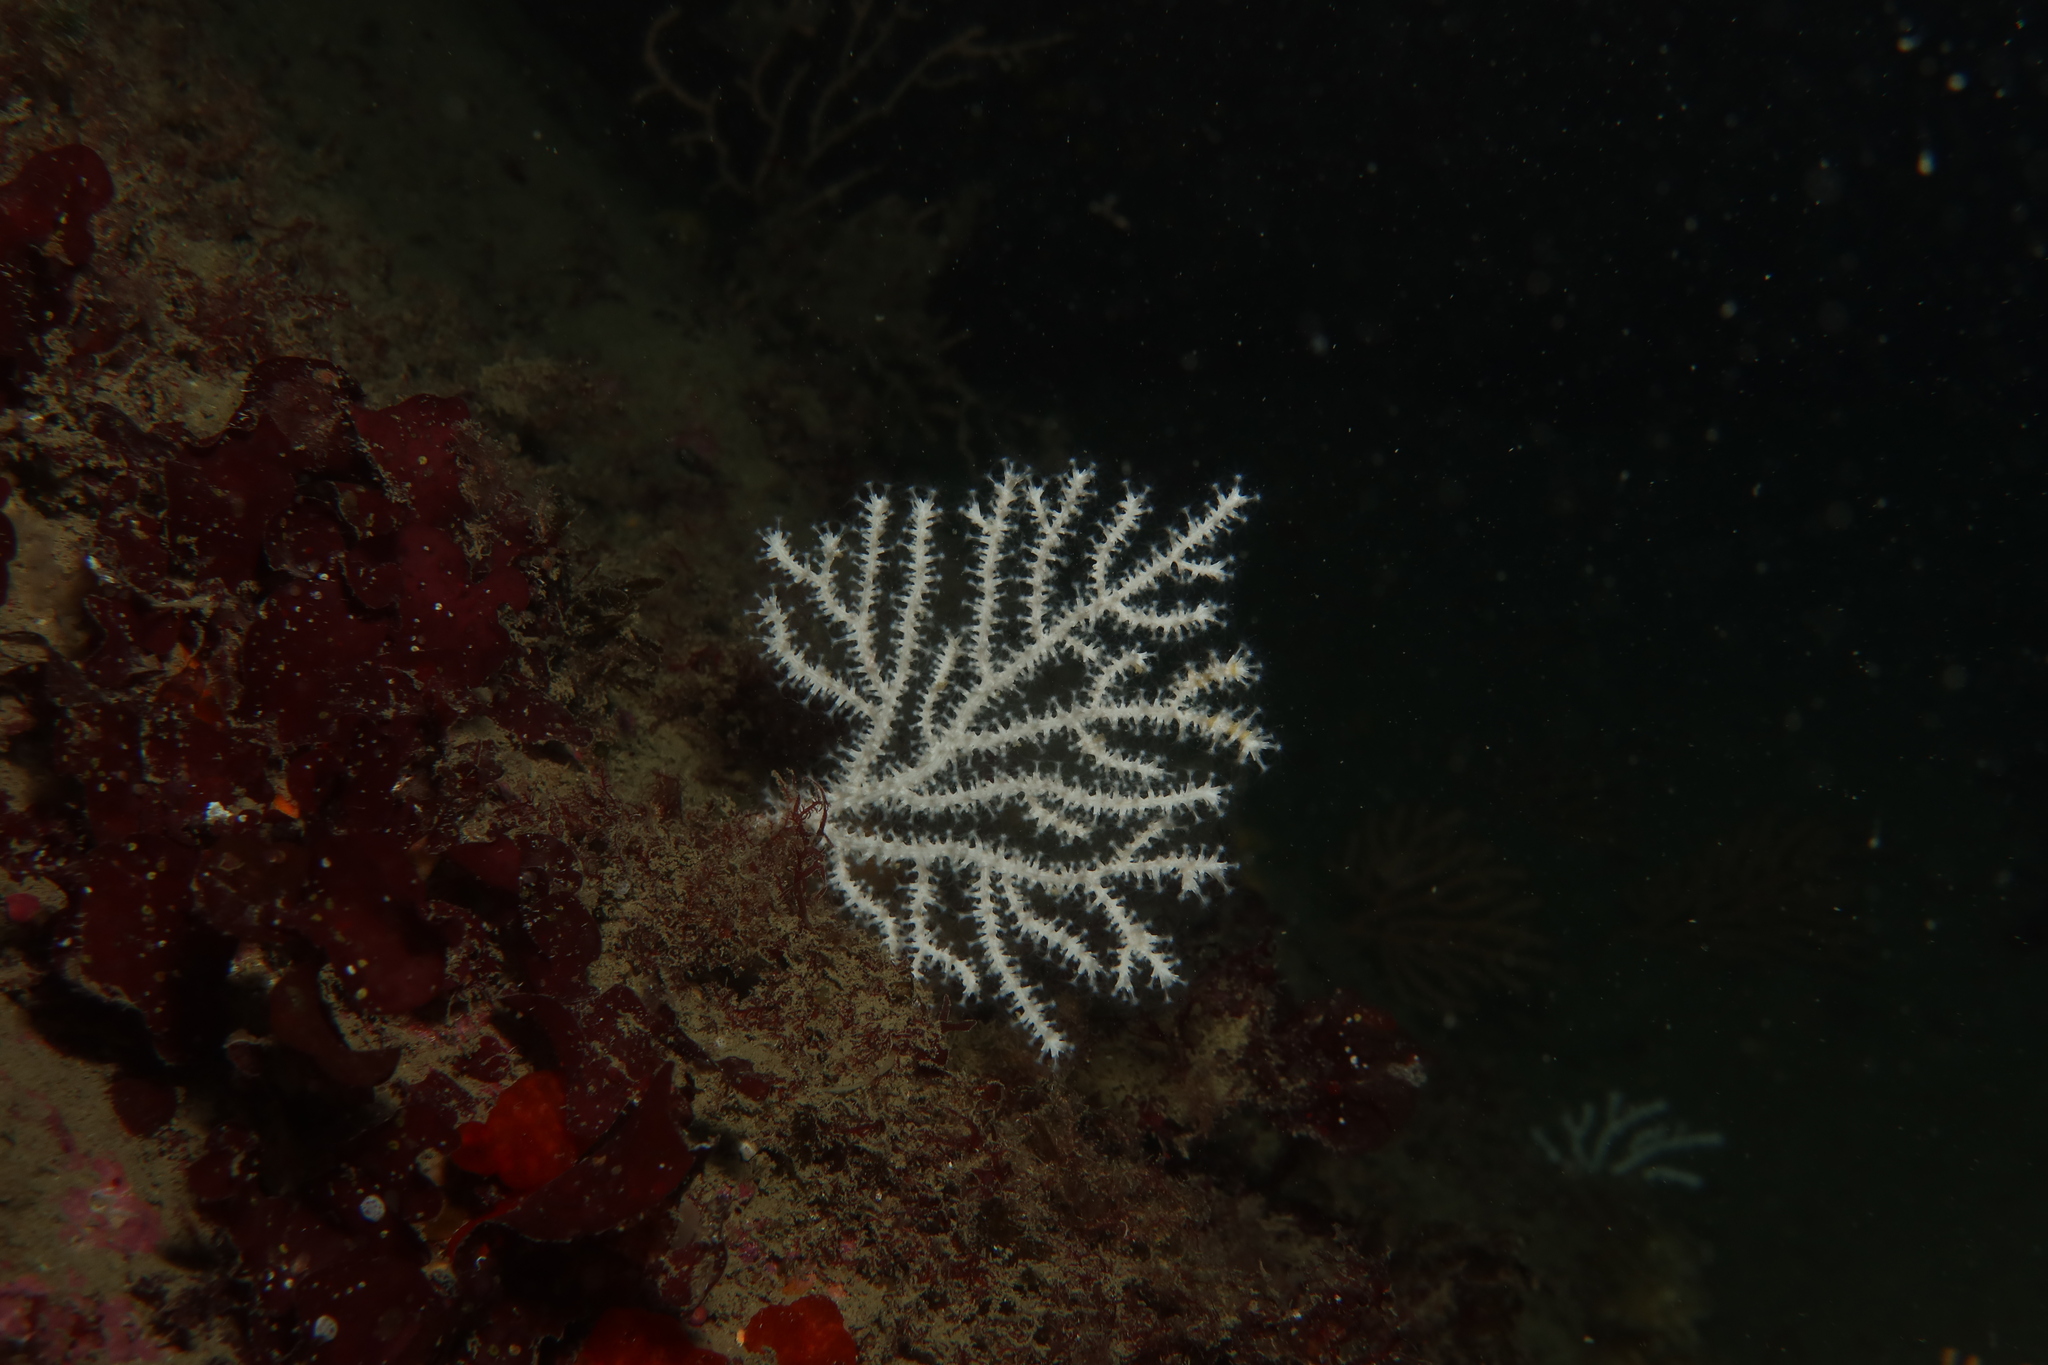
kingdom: Animalia
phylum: Cnidaria
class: Anthozoa
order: Malacalcyonacea
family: Eunicellidae
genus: Eunicella
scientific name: Eunicella verrucosa
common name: Pink sea-fan
